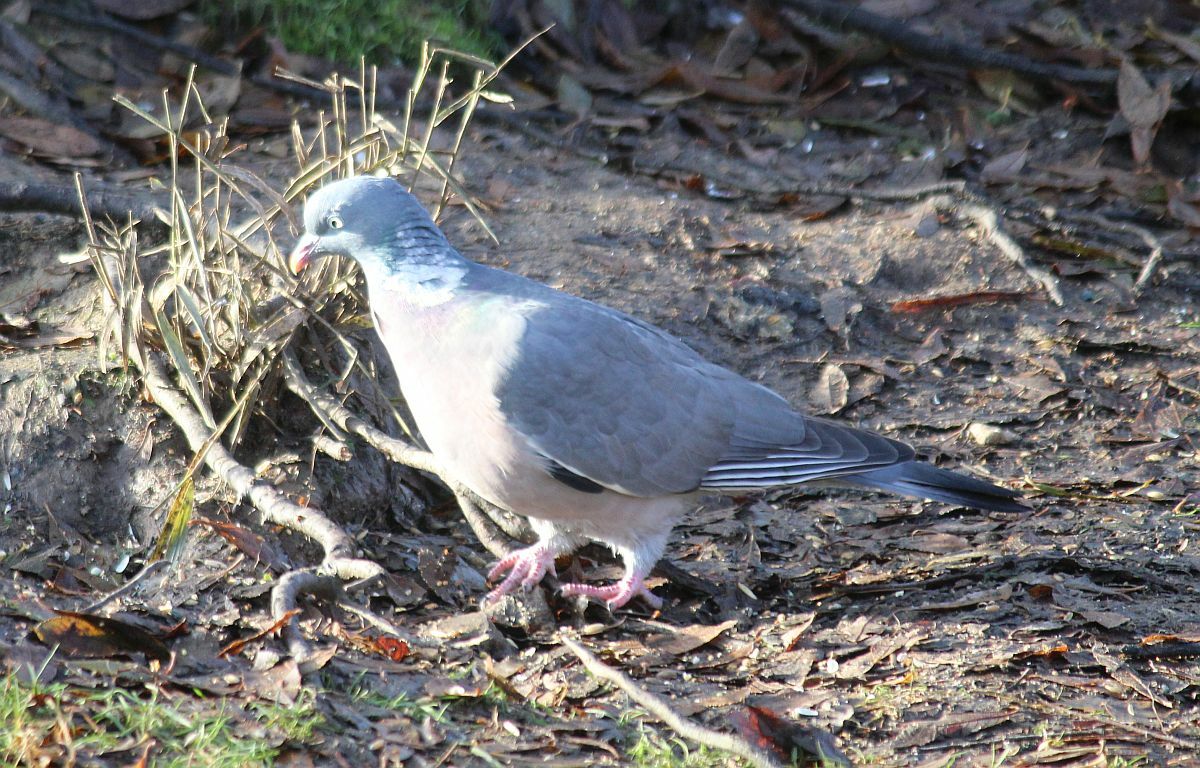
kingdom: Animalia
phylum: Chordata
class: Aves
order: Columbiformes
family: Columbidae
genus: Columba
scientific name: Columba palumbus
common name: Common wood pigeon
